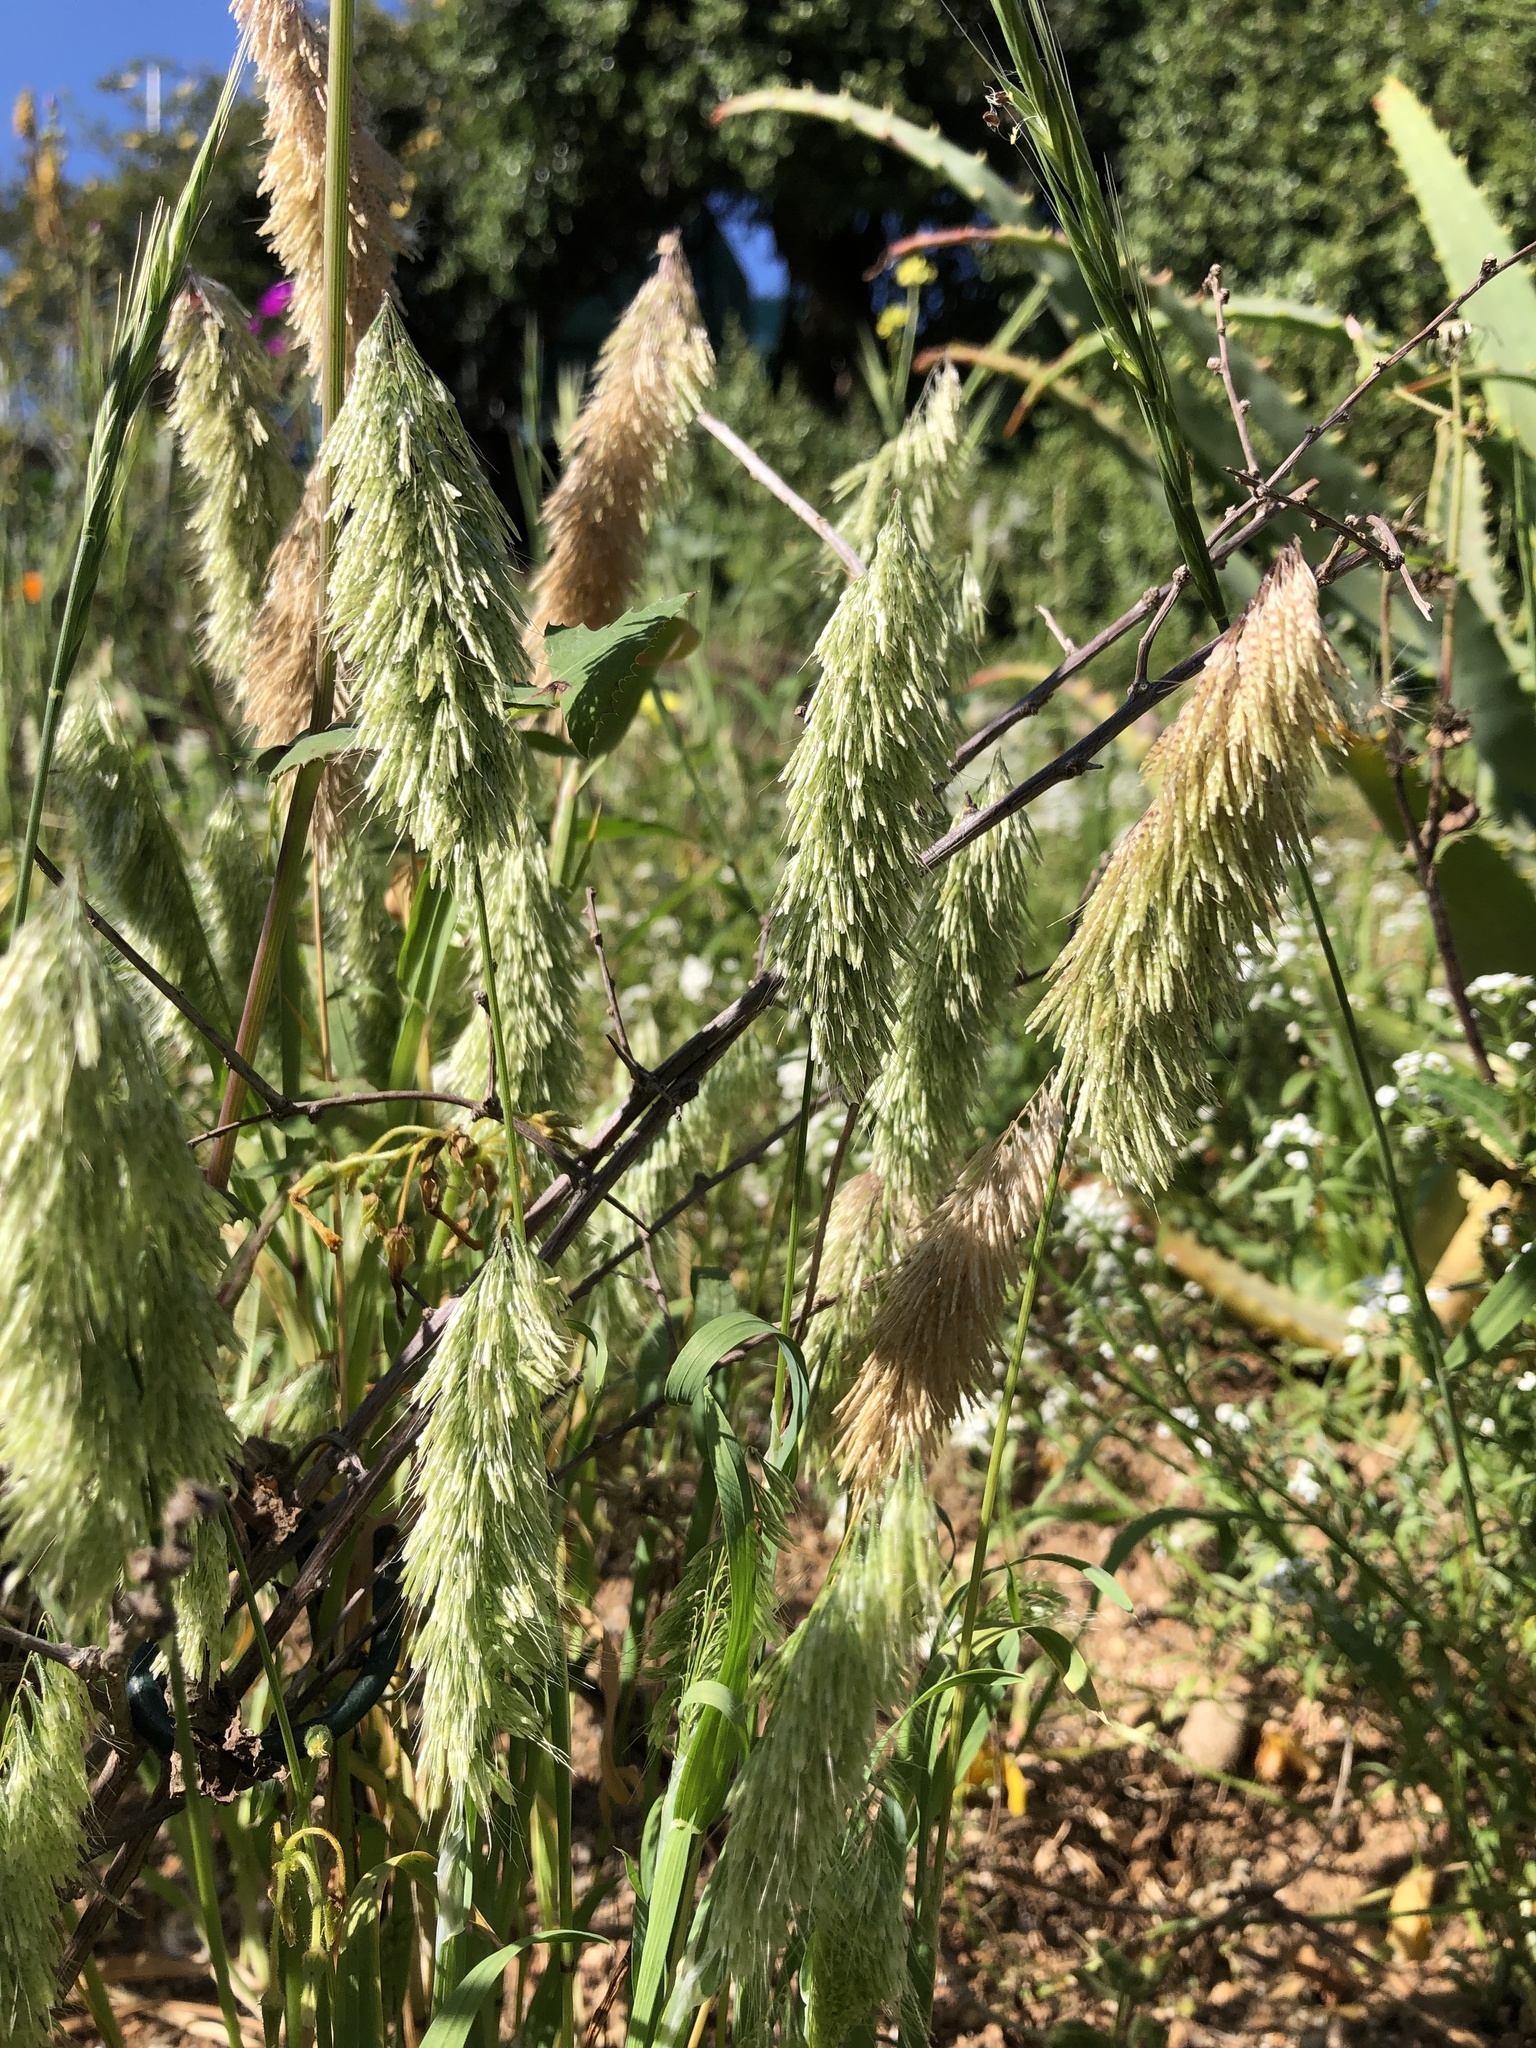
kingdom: Plantae
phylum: Tracheophyta
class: Liliopsida
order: Poales
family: Poaceae
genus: Lamarckia
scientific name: Lamarckia aurea
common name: Golden dog's-tail
